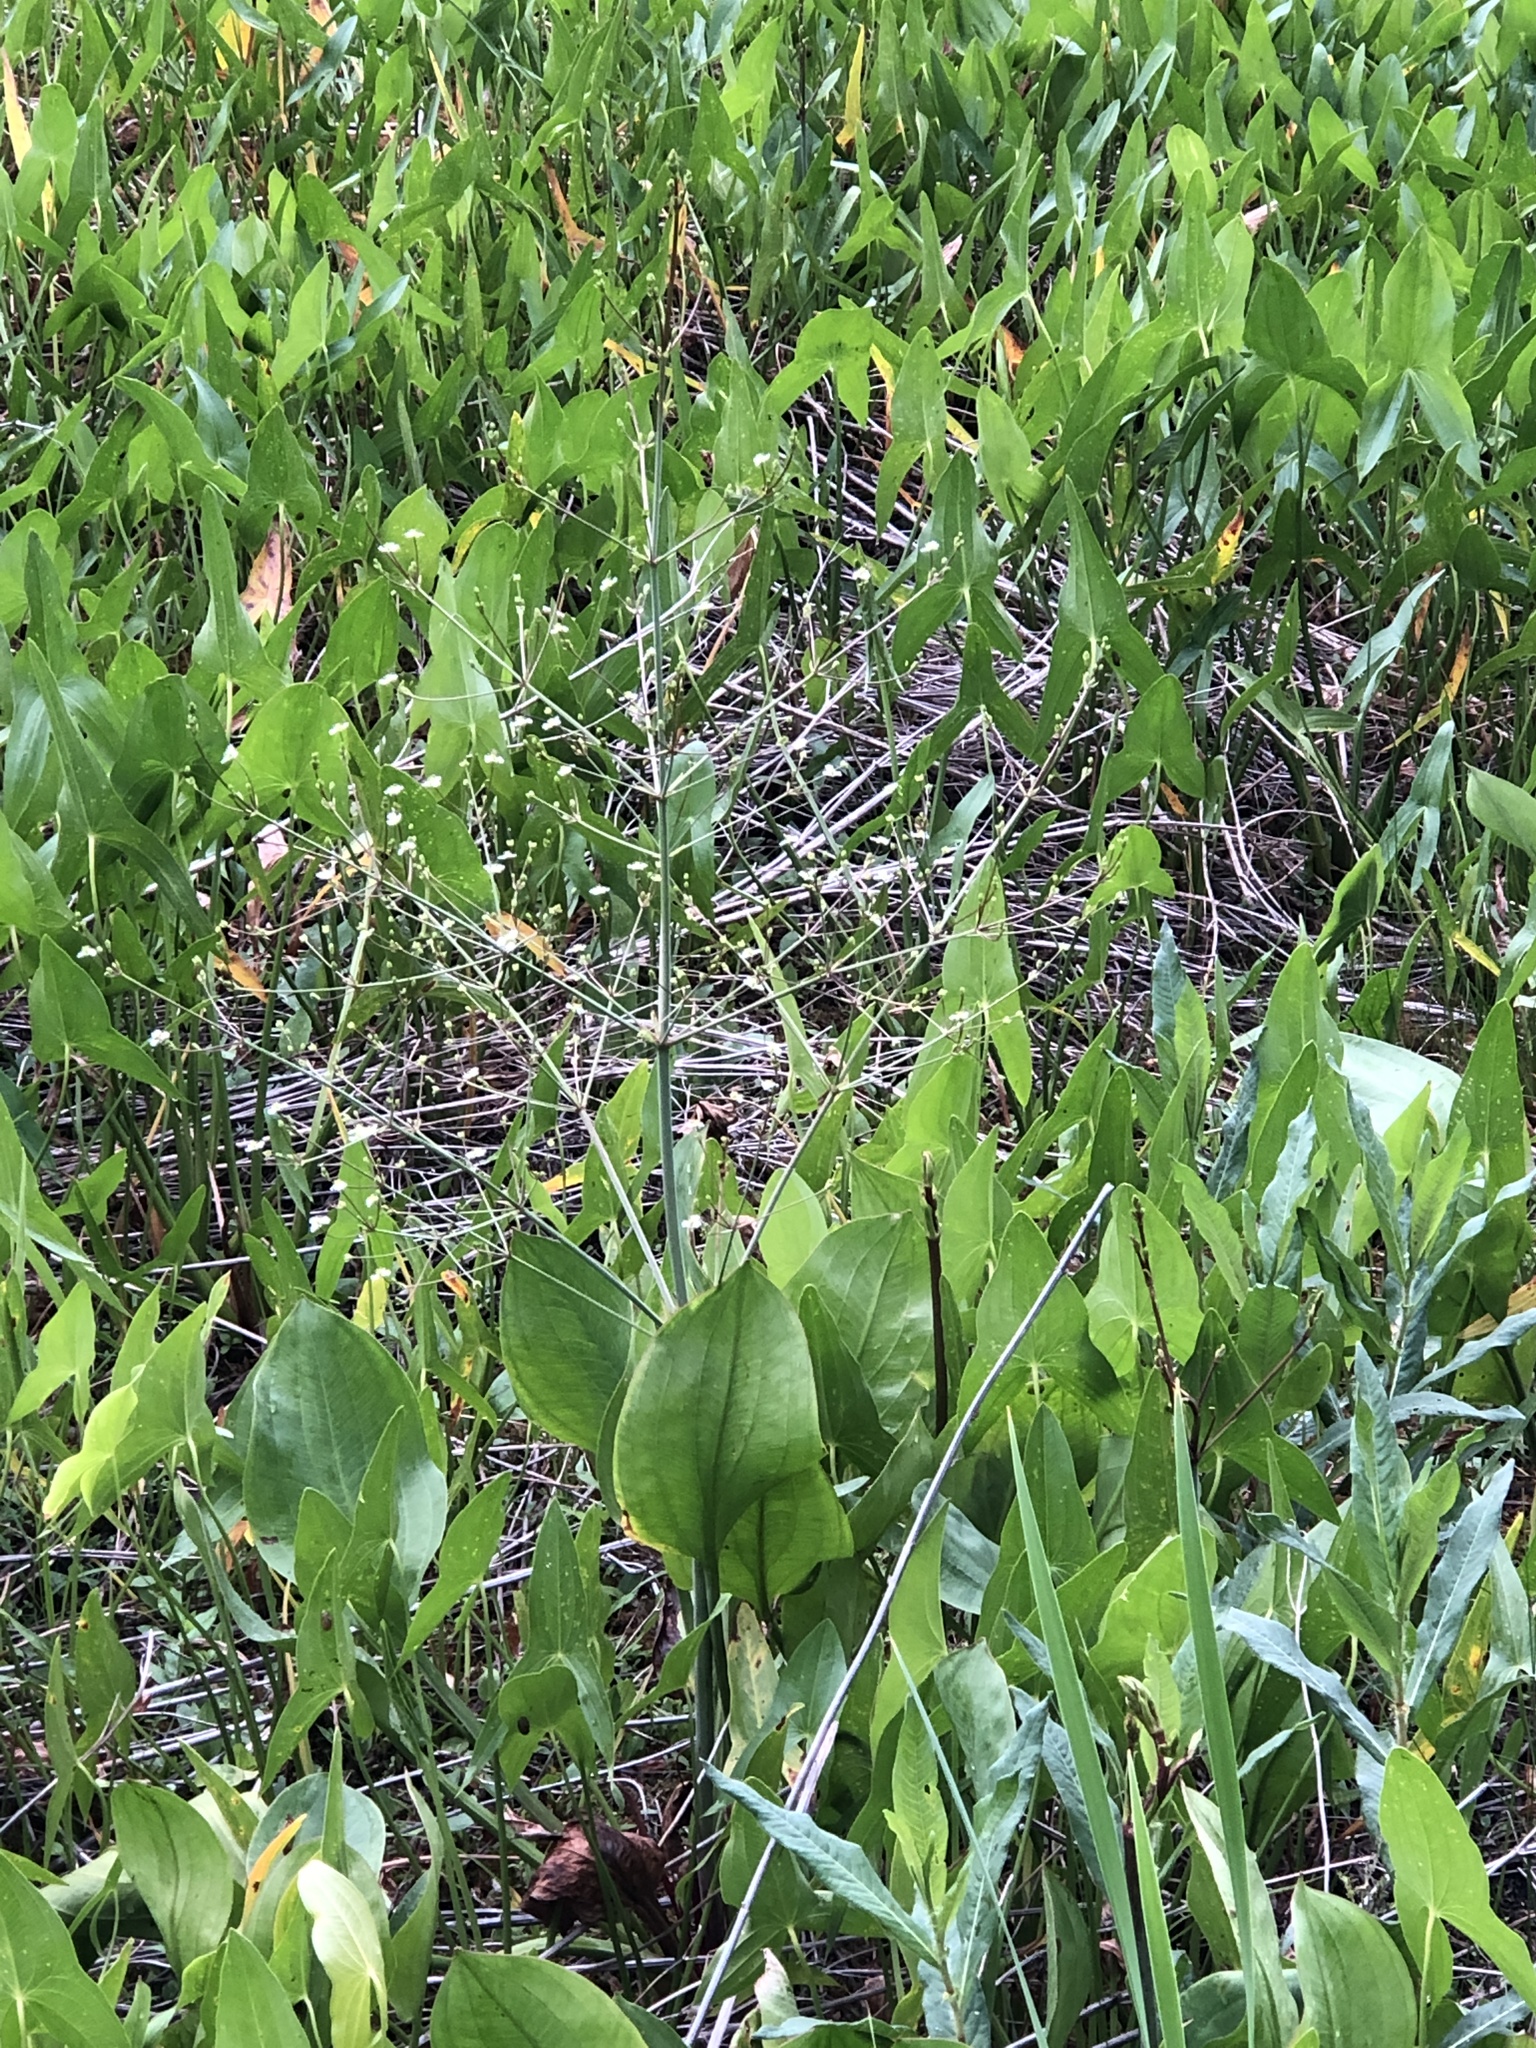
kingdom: Plantae
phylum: Tracheophyta
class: Liliopsida
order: Alismatales
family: Alismataceae
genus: Alisma
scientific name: Alisma triviale
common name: Northern water-plantain
